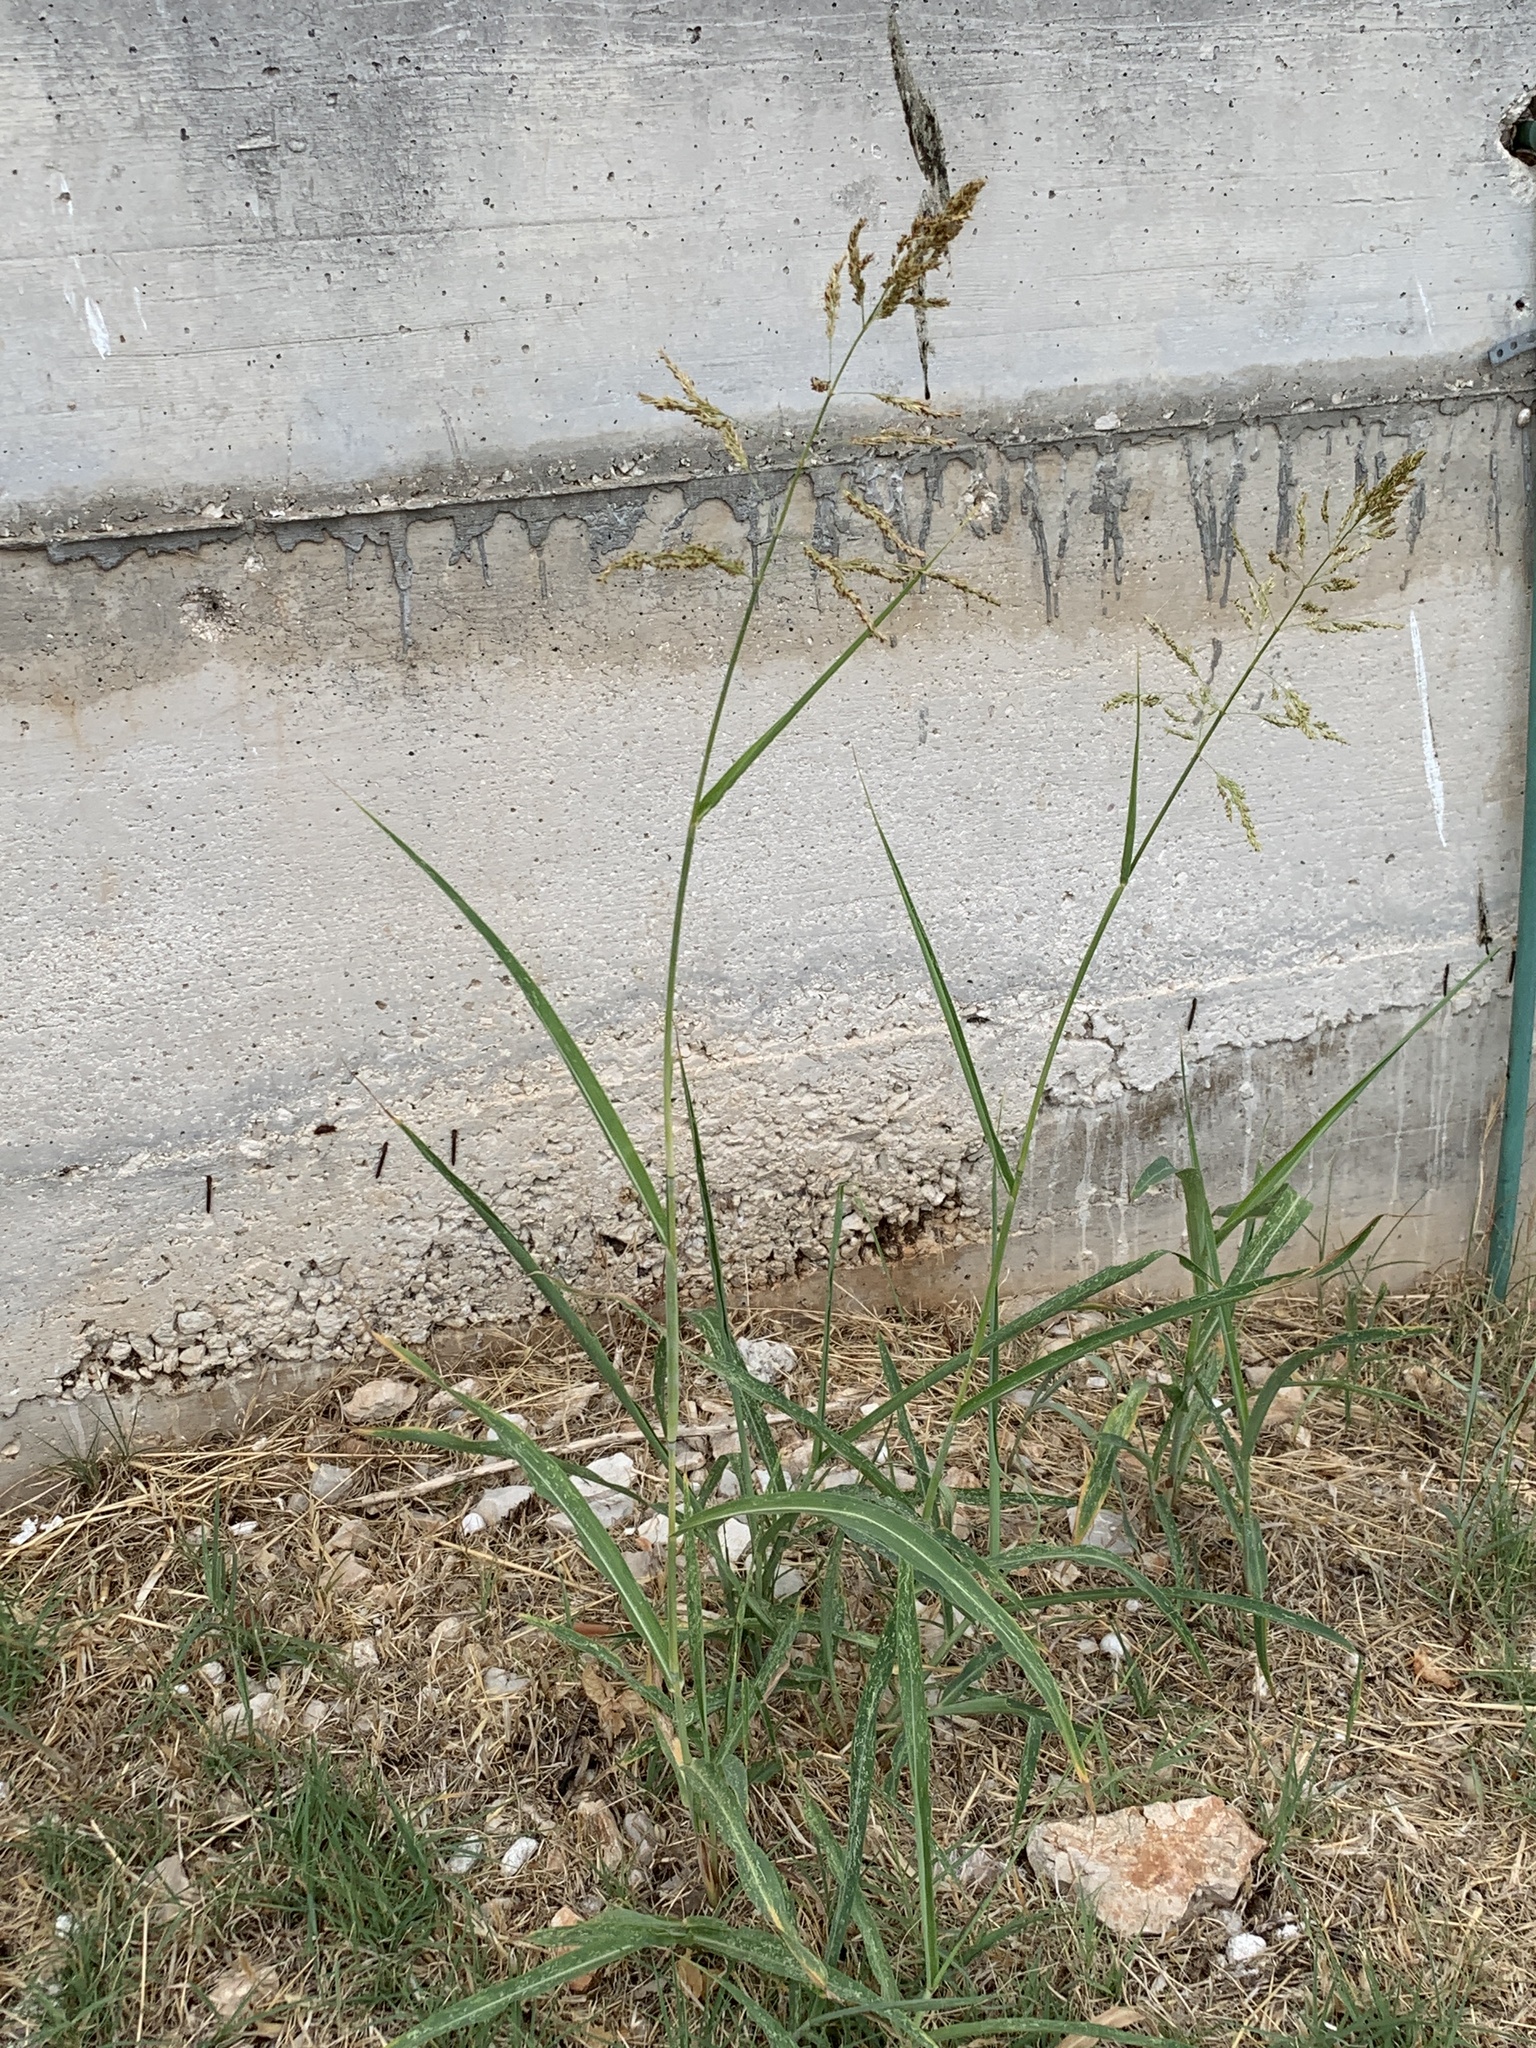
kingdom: Plantae
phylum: Tracheophyta
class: Liliopsida
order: Poales
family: Poaceae
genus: Sorghum
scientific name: Sorghum halepense
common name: Johnson-grass
